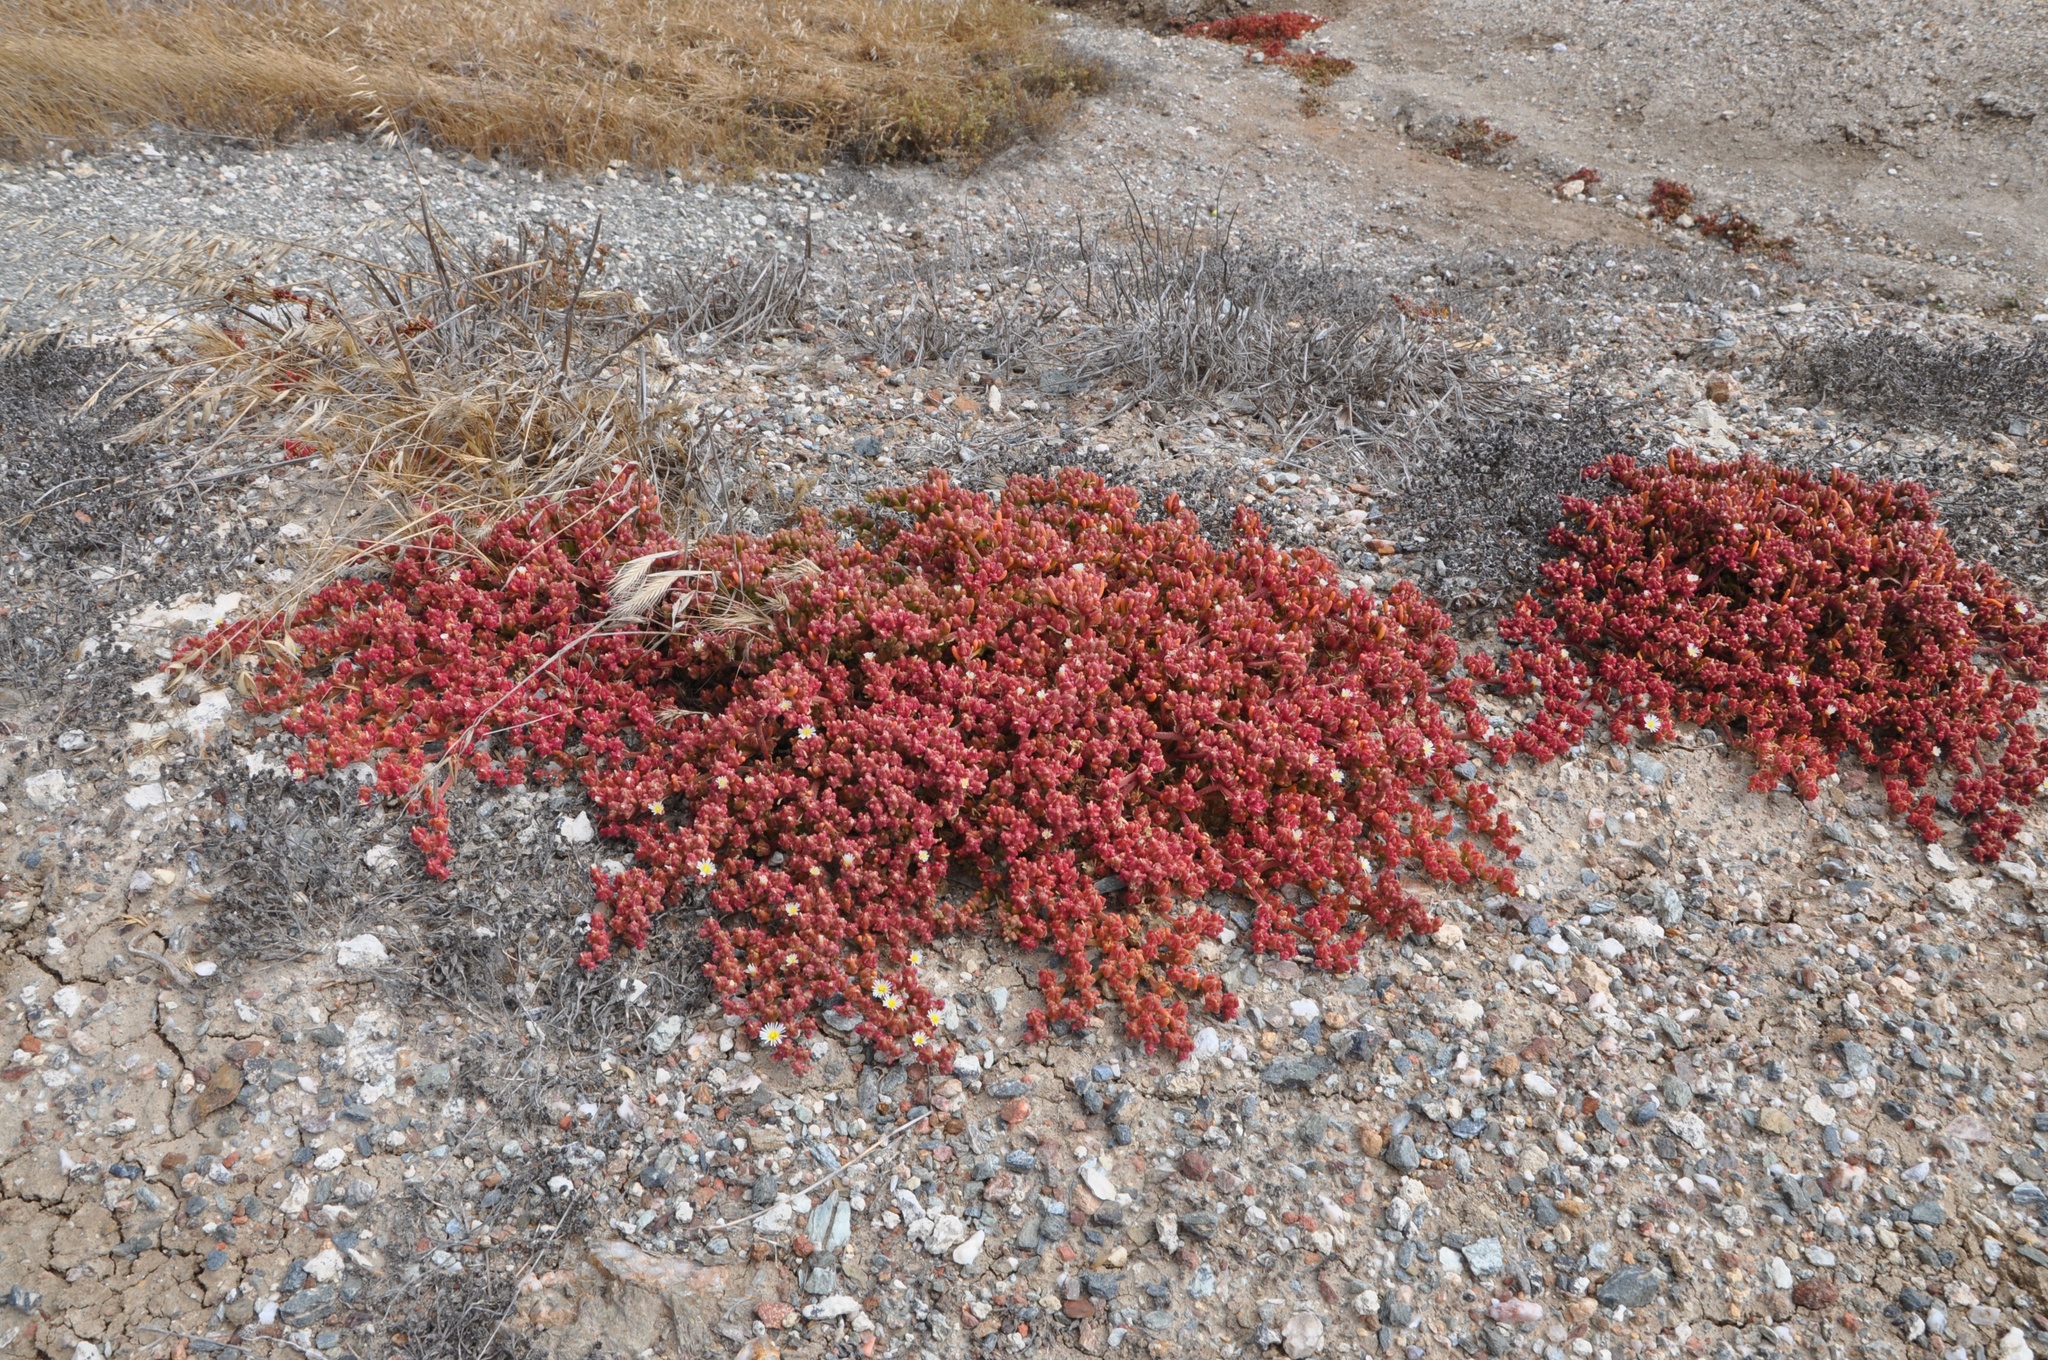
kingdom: Plantae
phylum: Tracheophyta
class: Magnoliopsida
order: Caryophyllales
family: Aizoaceae
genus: Mesembryanthemum
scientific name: Mesembryanthemum nodiflorum
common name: Slenderleaf iceplant
